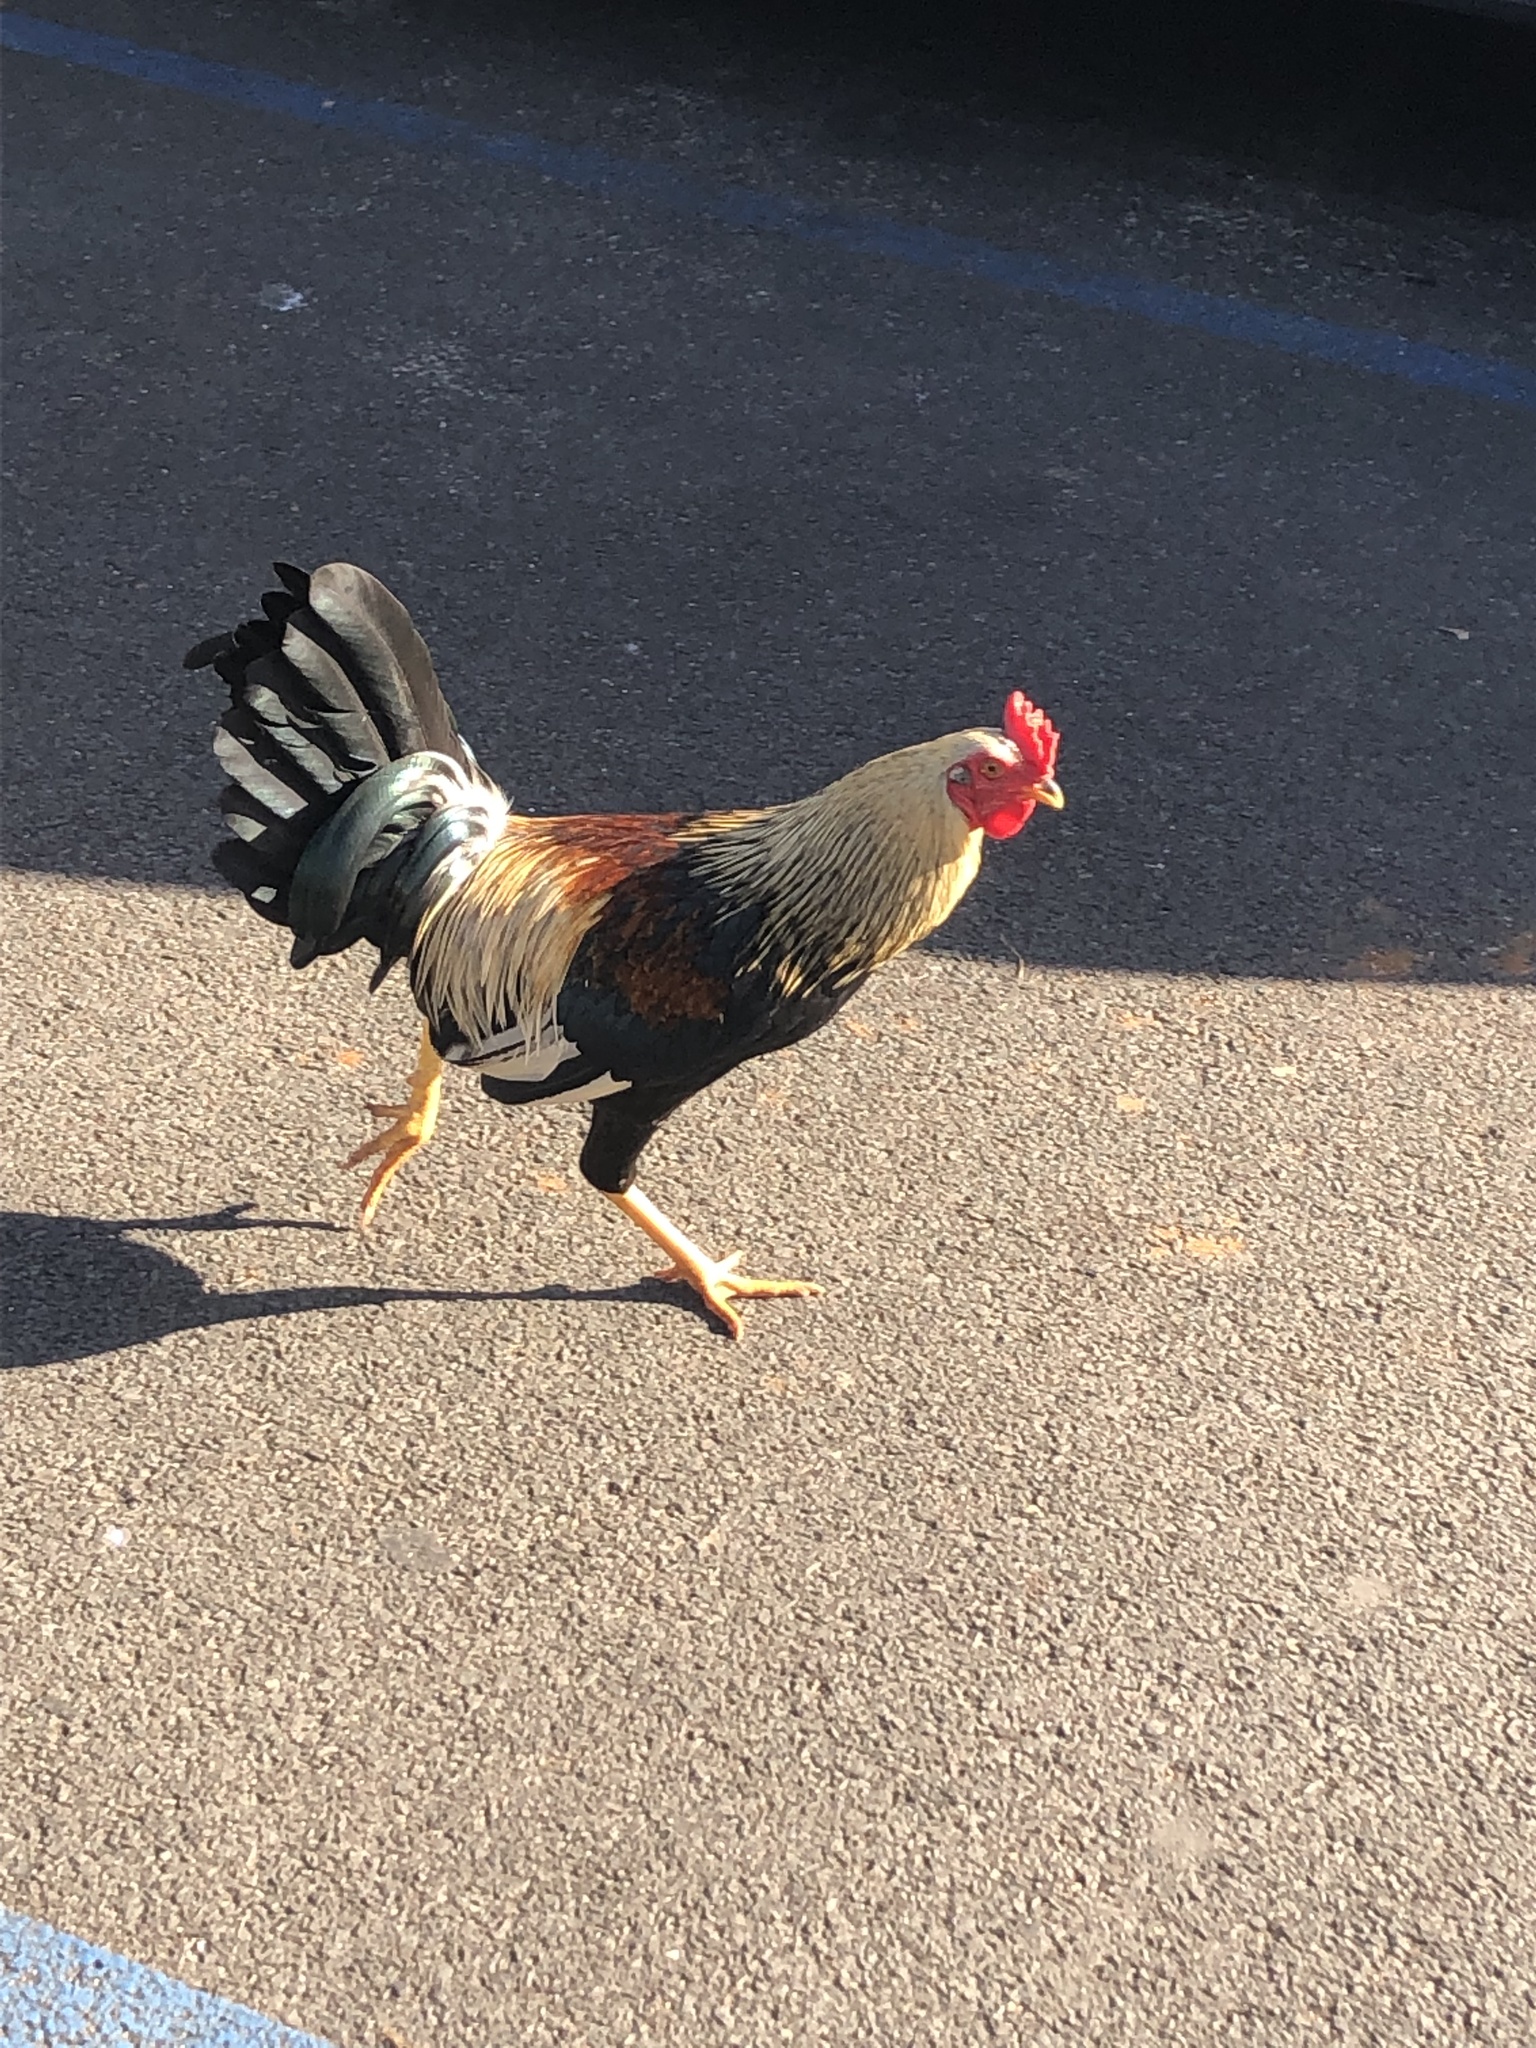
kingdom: Animalia
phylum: Chordata
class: Aves
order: Galliformes
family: Phasianidae
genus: Gallus
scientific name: Gallus gallus
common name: Red junglefowl
